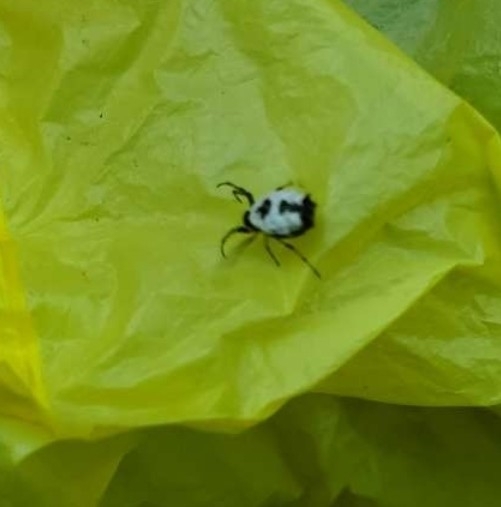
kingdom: Animalia
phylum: Arthropoda
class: Arachnida
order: Araneae
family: Araneidae
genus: Micrathena
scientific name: Micrathena mitrata
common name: Orb weavers
